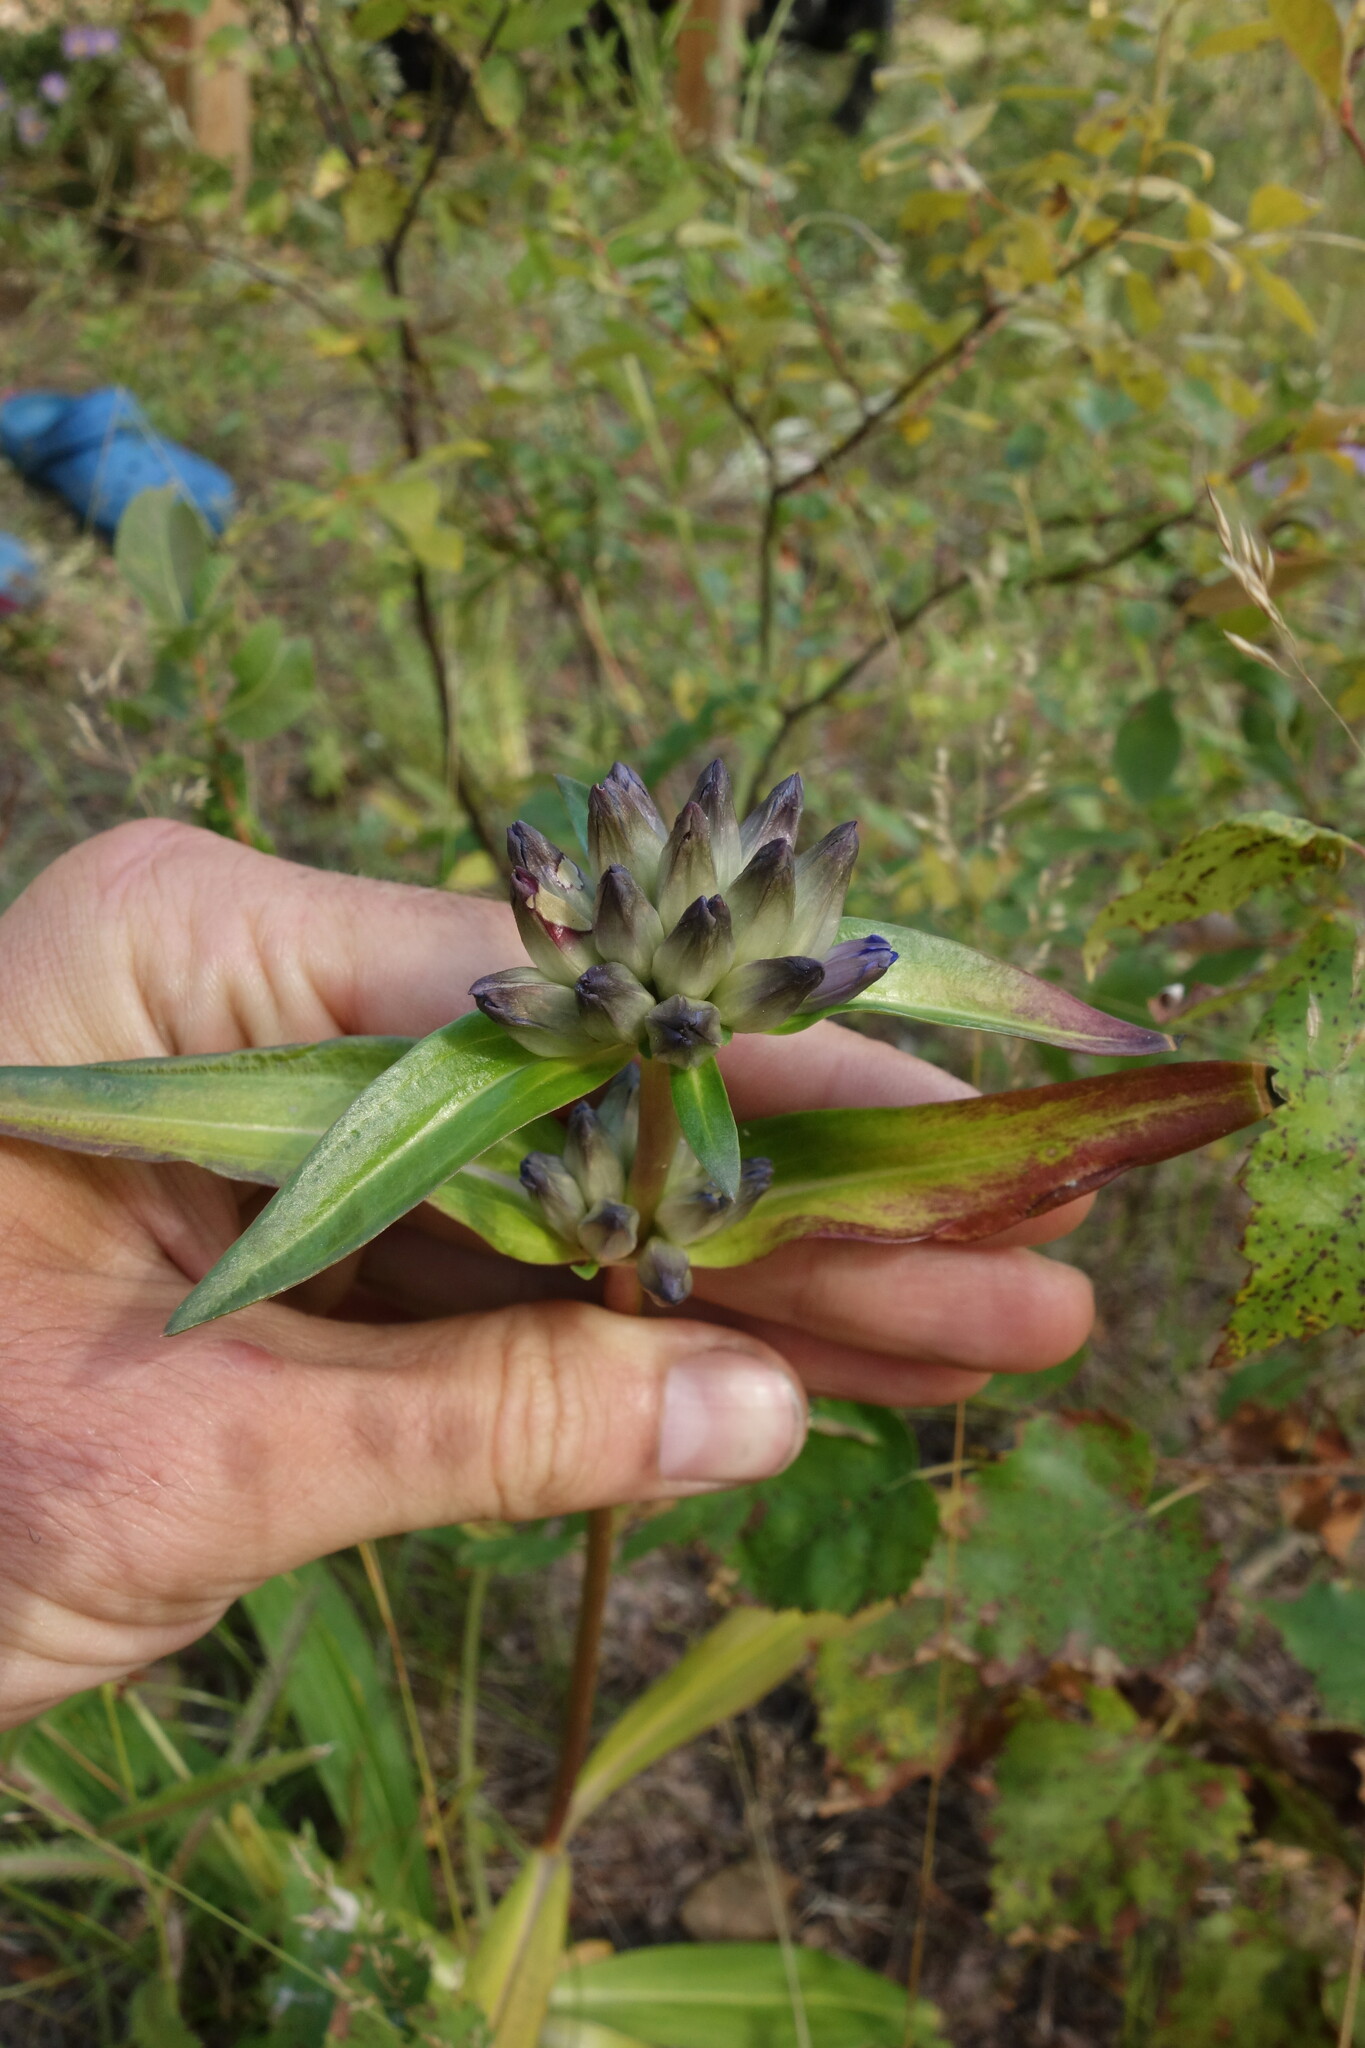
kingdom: Plantae
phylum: Tracheophyta
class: Magnoliopsida
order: Gentianales
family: Gentianaceae
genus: Gentiana
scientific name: Gentiana macrophylla
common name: Large-leaf gentian
